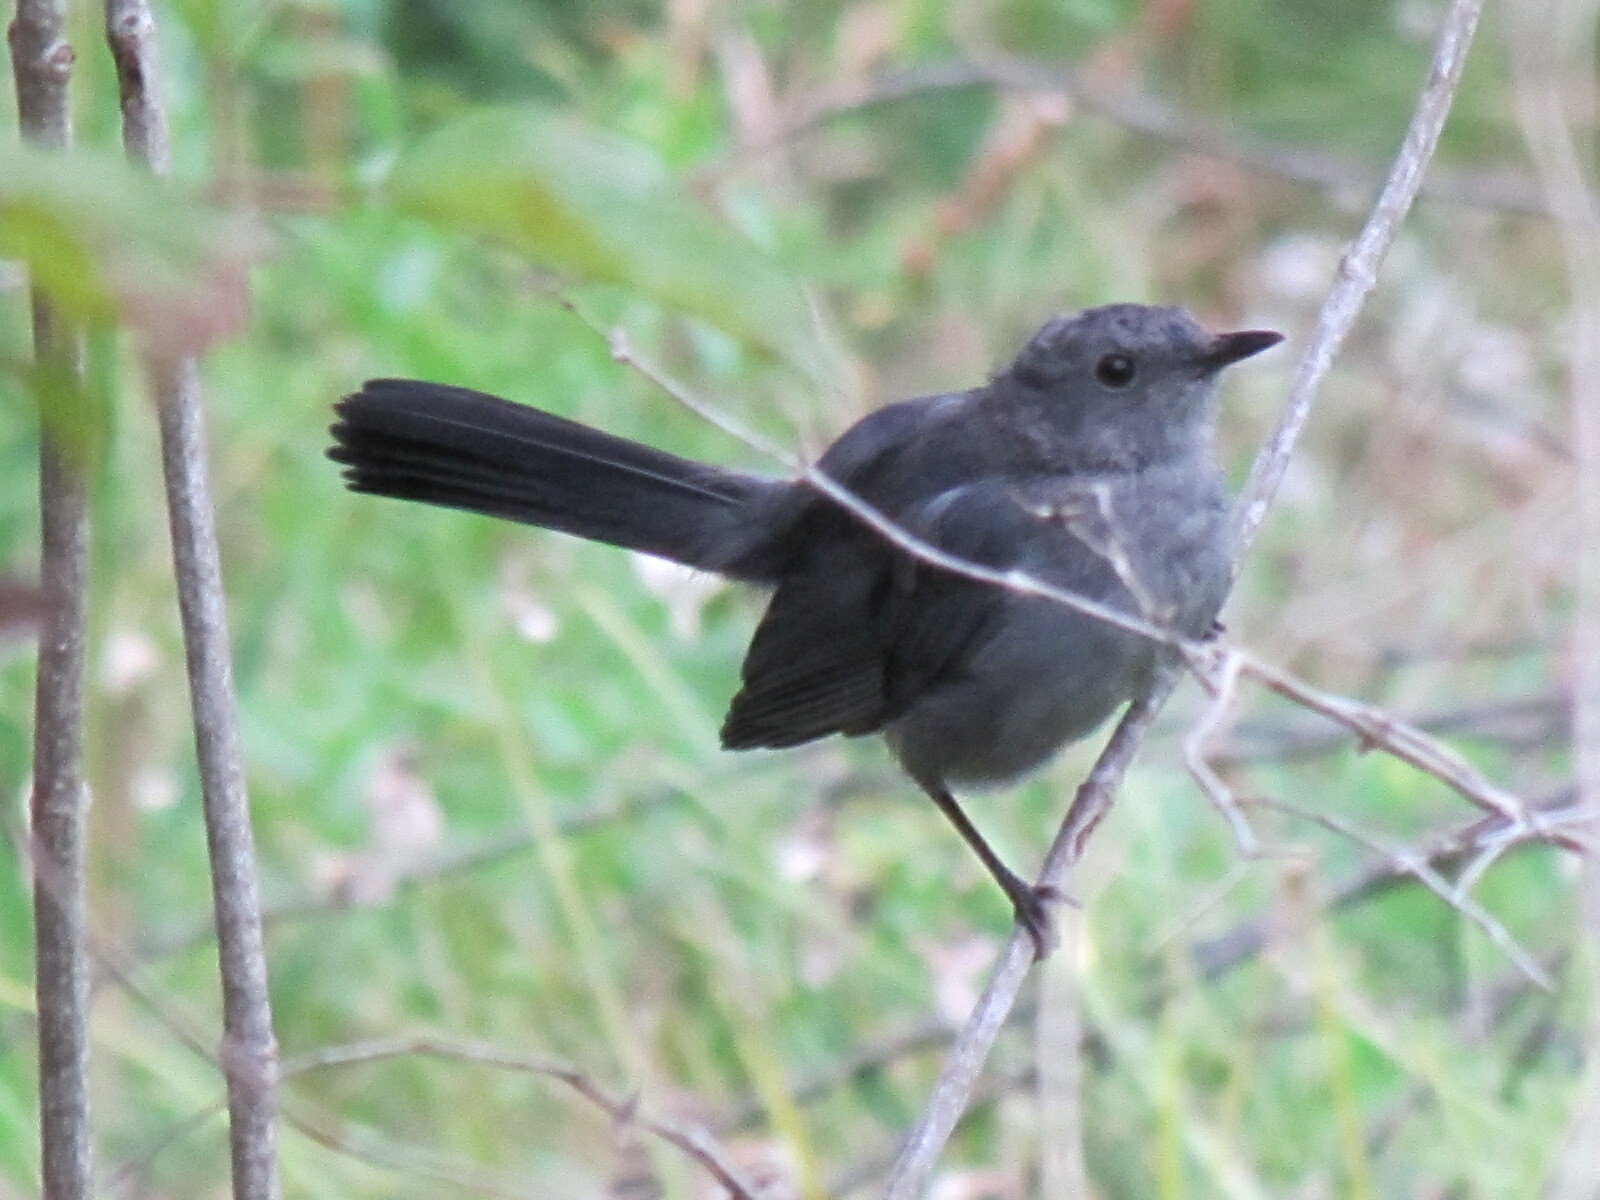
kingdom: Animalia
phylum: Chordata
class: Aves
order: Passeriformes
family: Mimidae
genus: Dumetella
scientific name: Dumetella carolinensis
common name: Gray catbird
